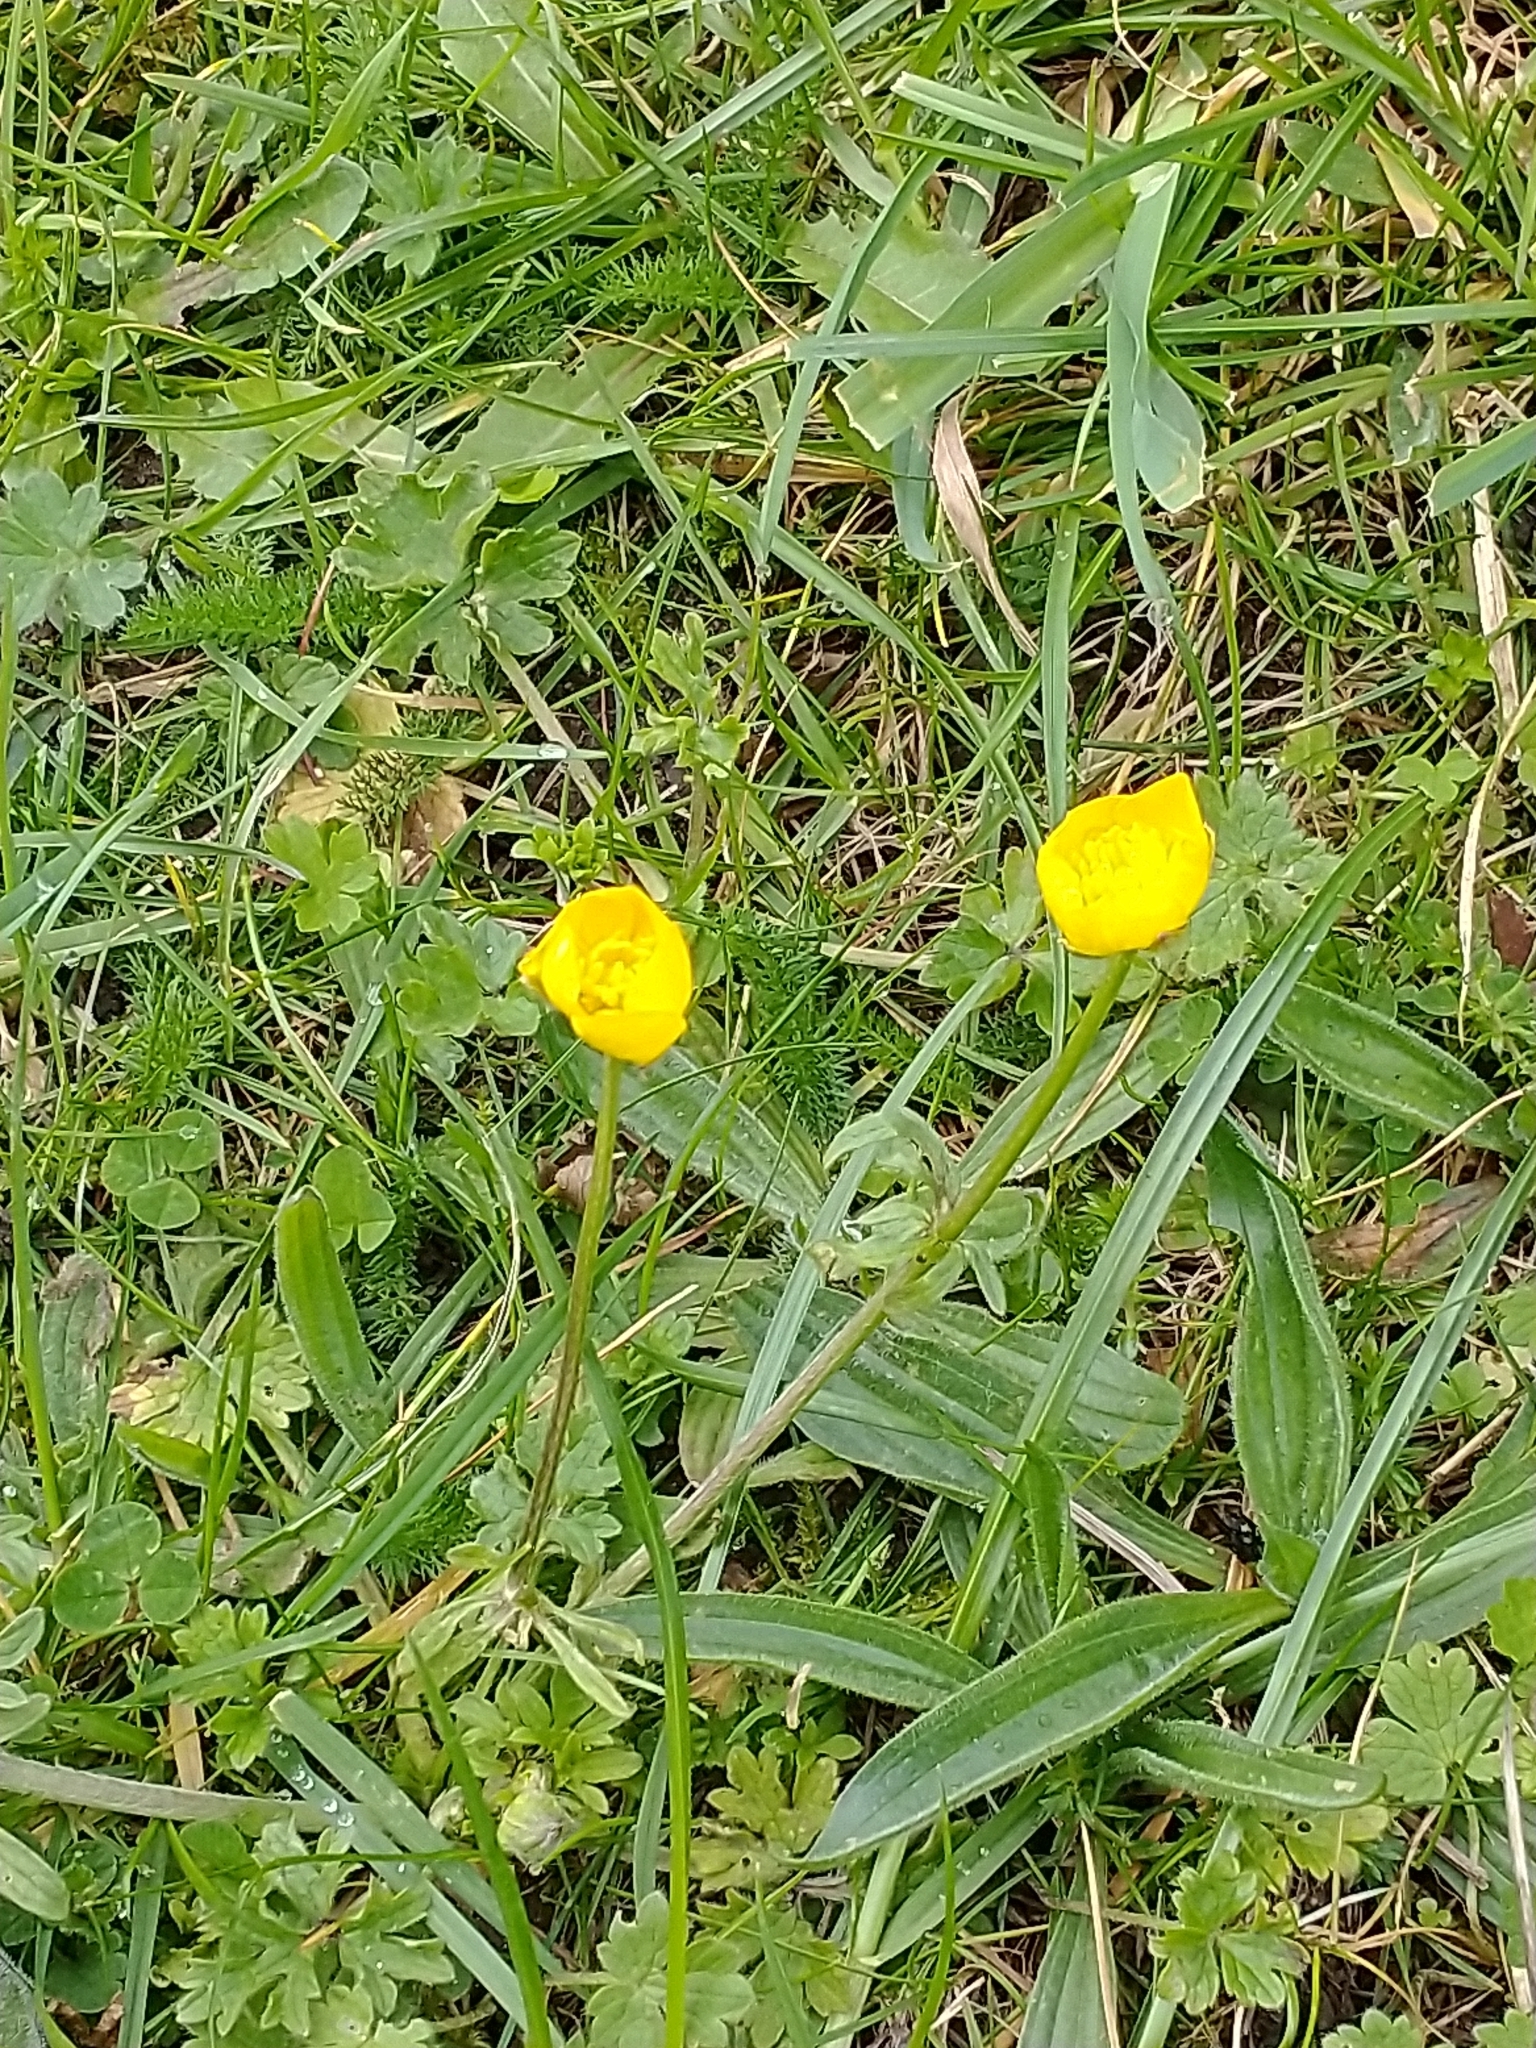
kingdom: Plantae
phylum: Tracheophyta
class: Magnoliopsida
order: Ranunculales
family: Ranunculaceae
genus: Ranunculus
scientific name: Ranunculus bulbosus
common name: Bulbous buttercup
